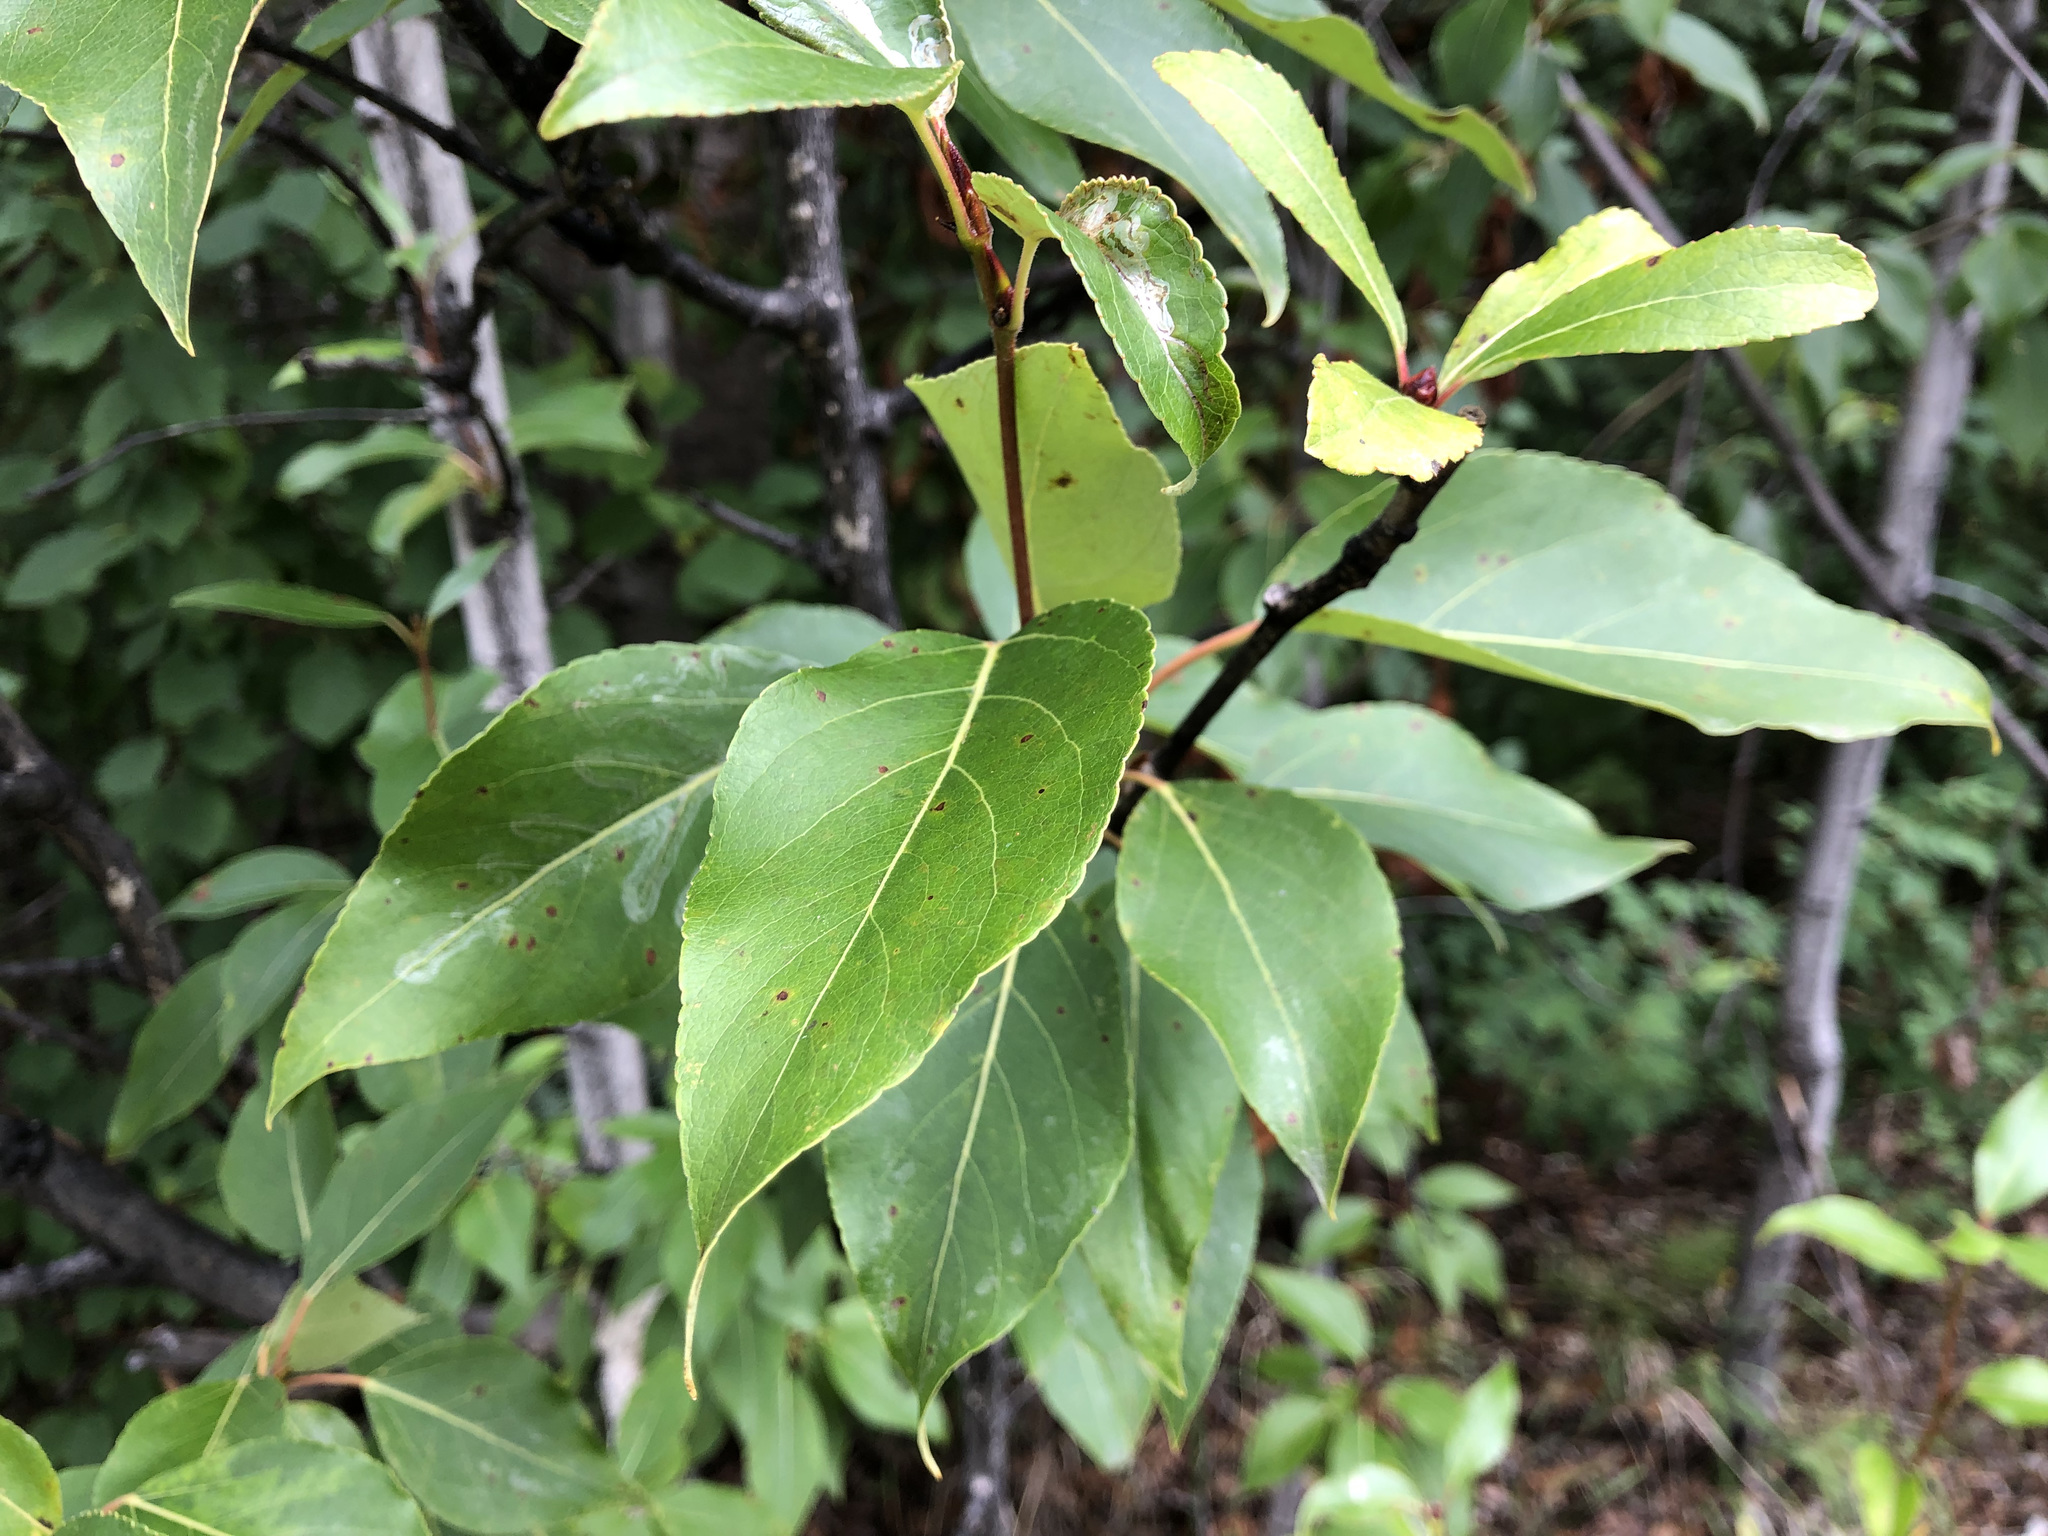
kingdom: Plantae
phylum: Tracheophyta
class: Magnoliopsida
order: Malpighiales
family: Salicaceae
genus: Populus
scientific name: Populus balsamifera
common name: Balsam poplar
